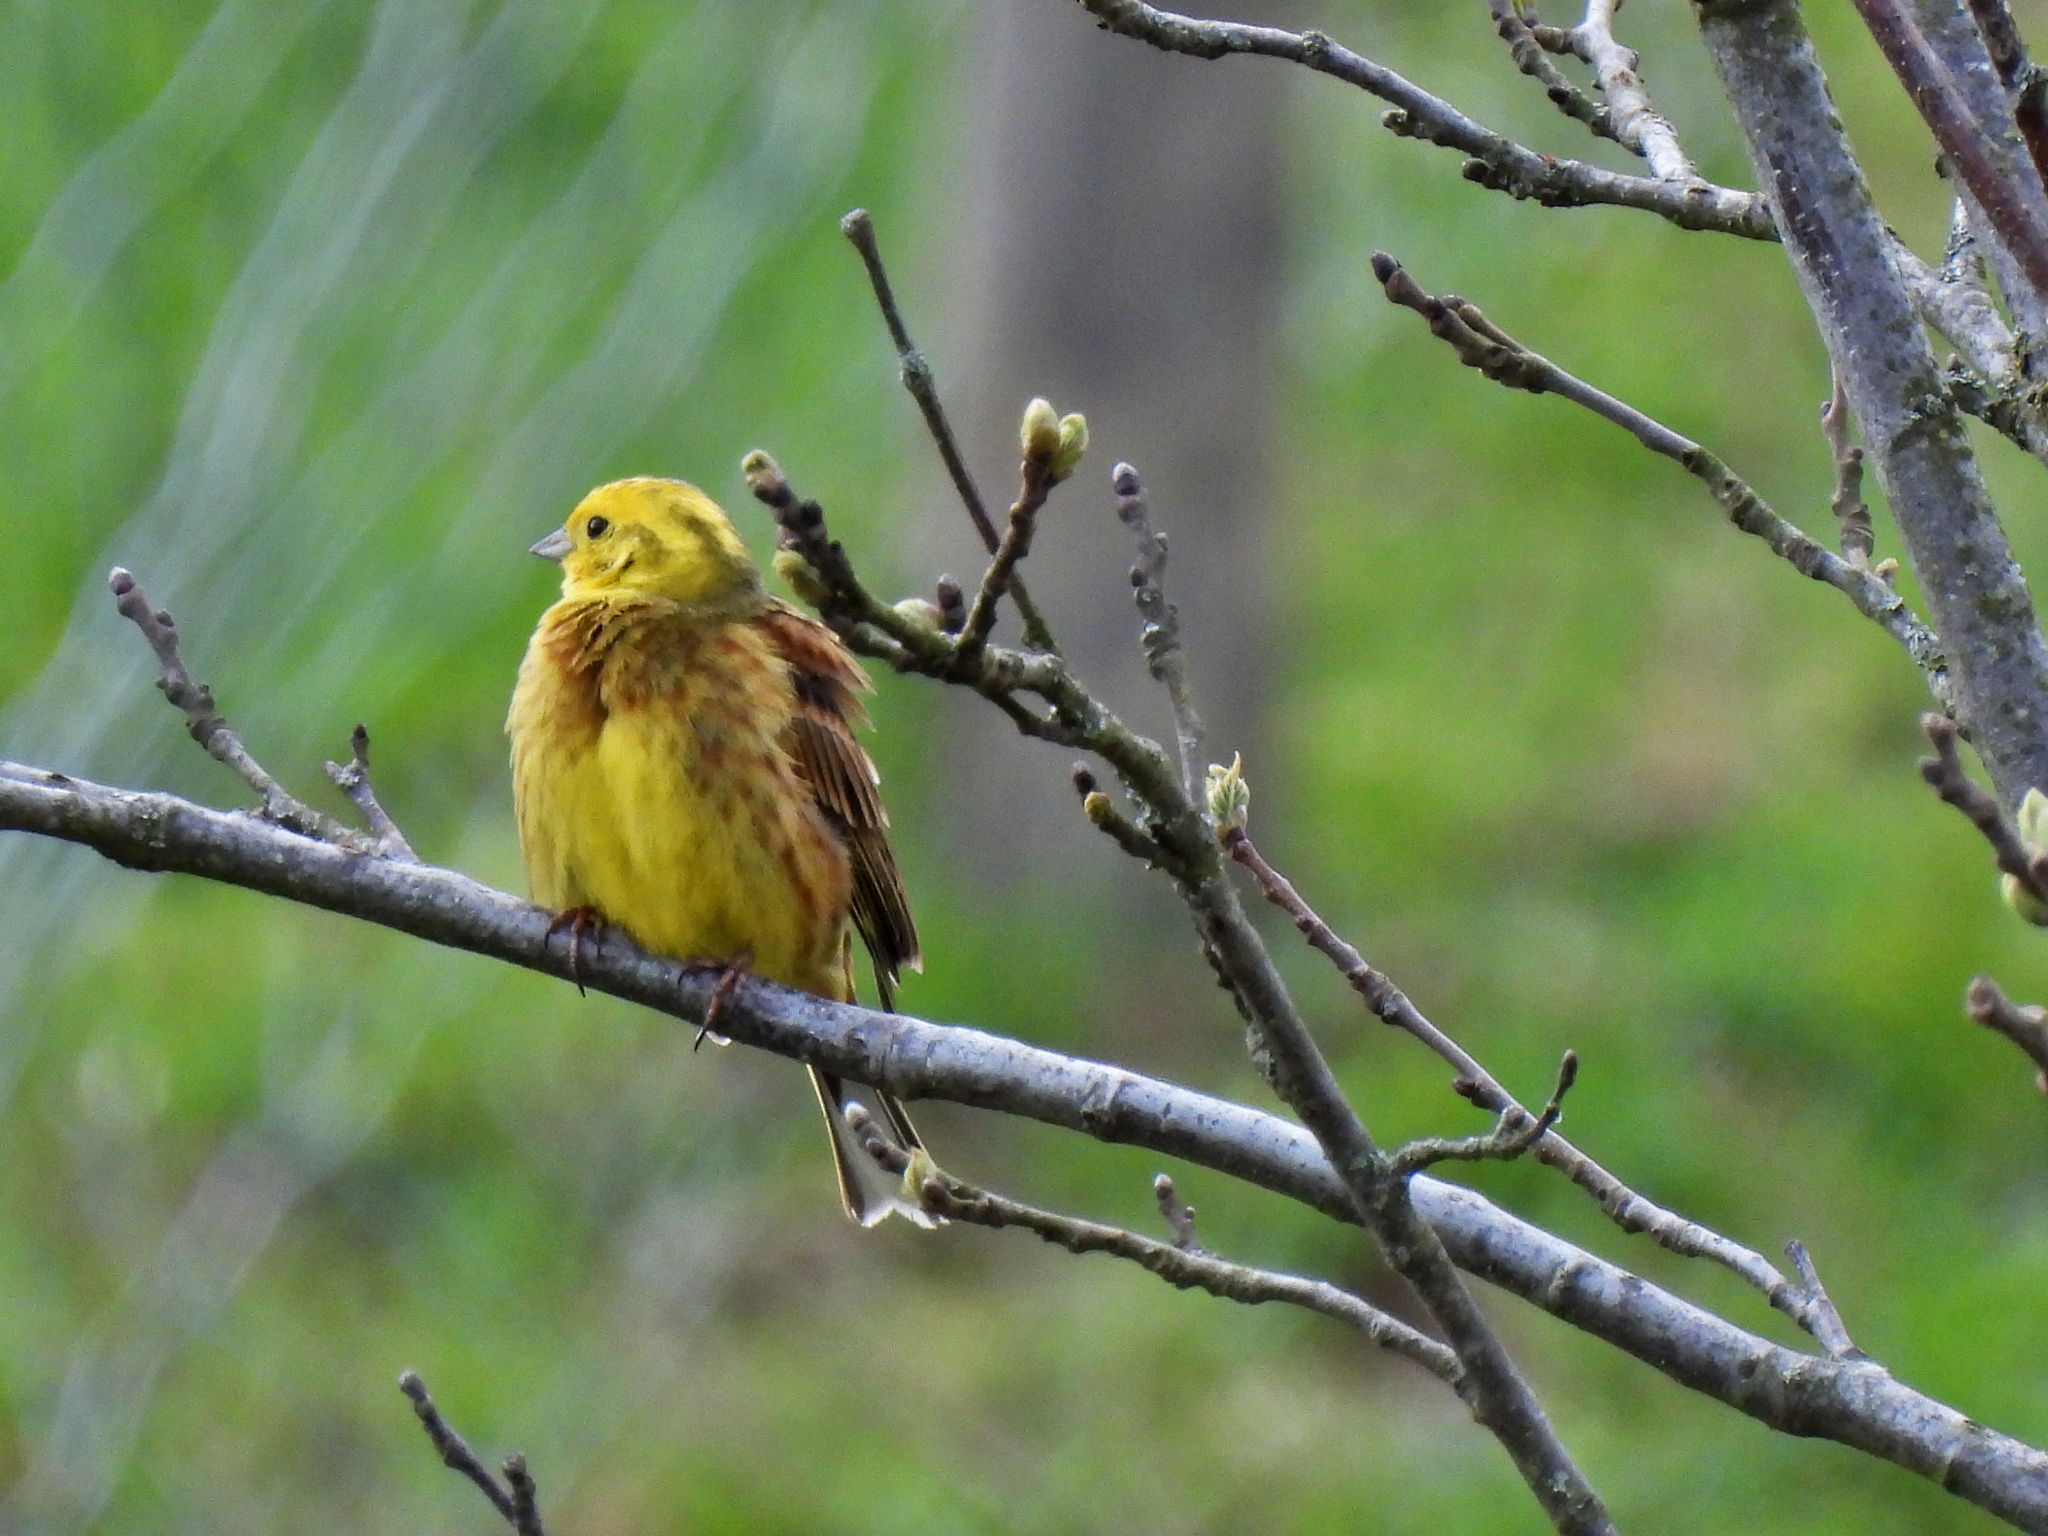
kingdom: Animalia
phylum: Chordata
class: Aves
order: Passeriformes
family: Emberizidae
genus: Emberiza
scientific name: Emberiza citrinella
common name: Yellowhammer
